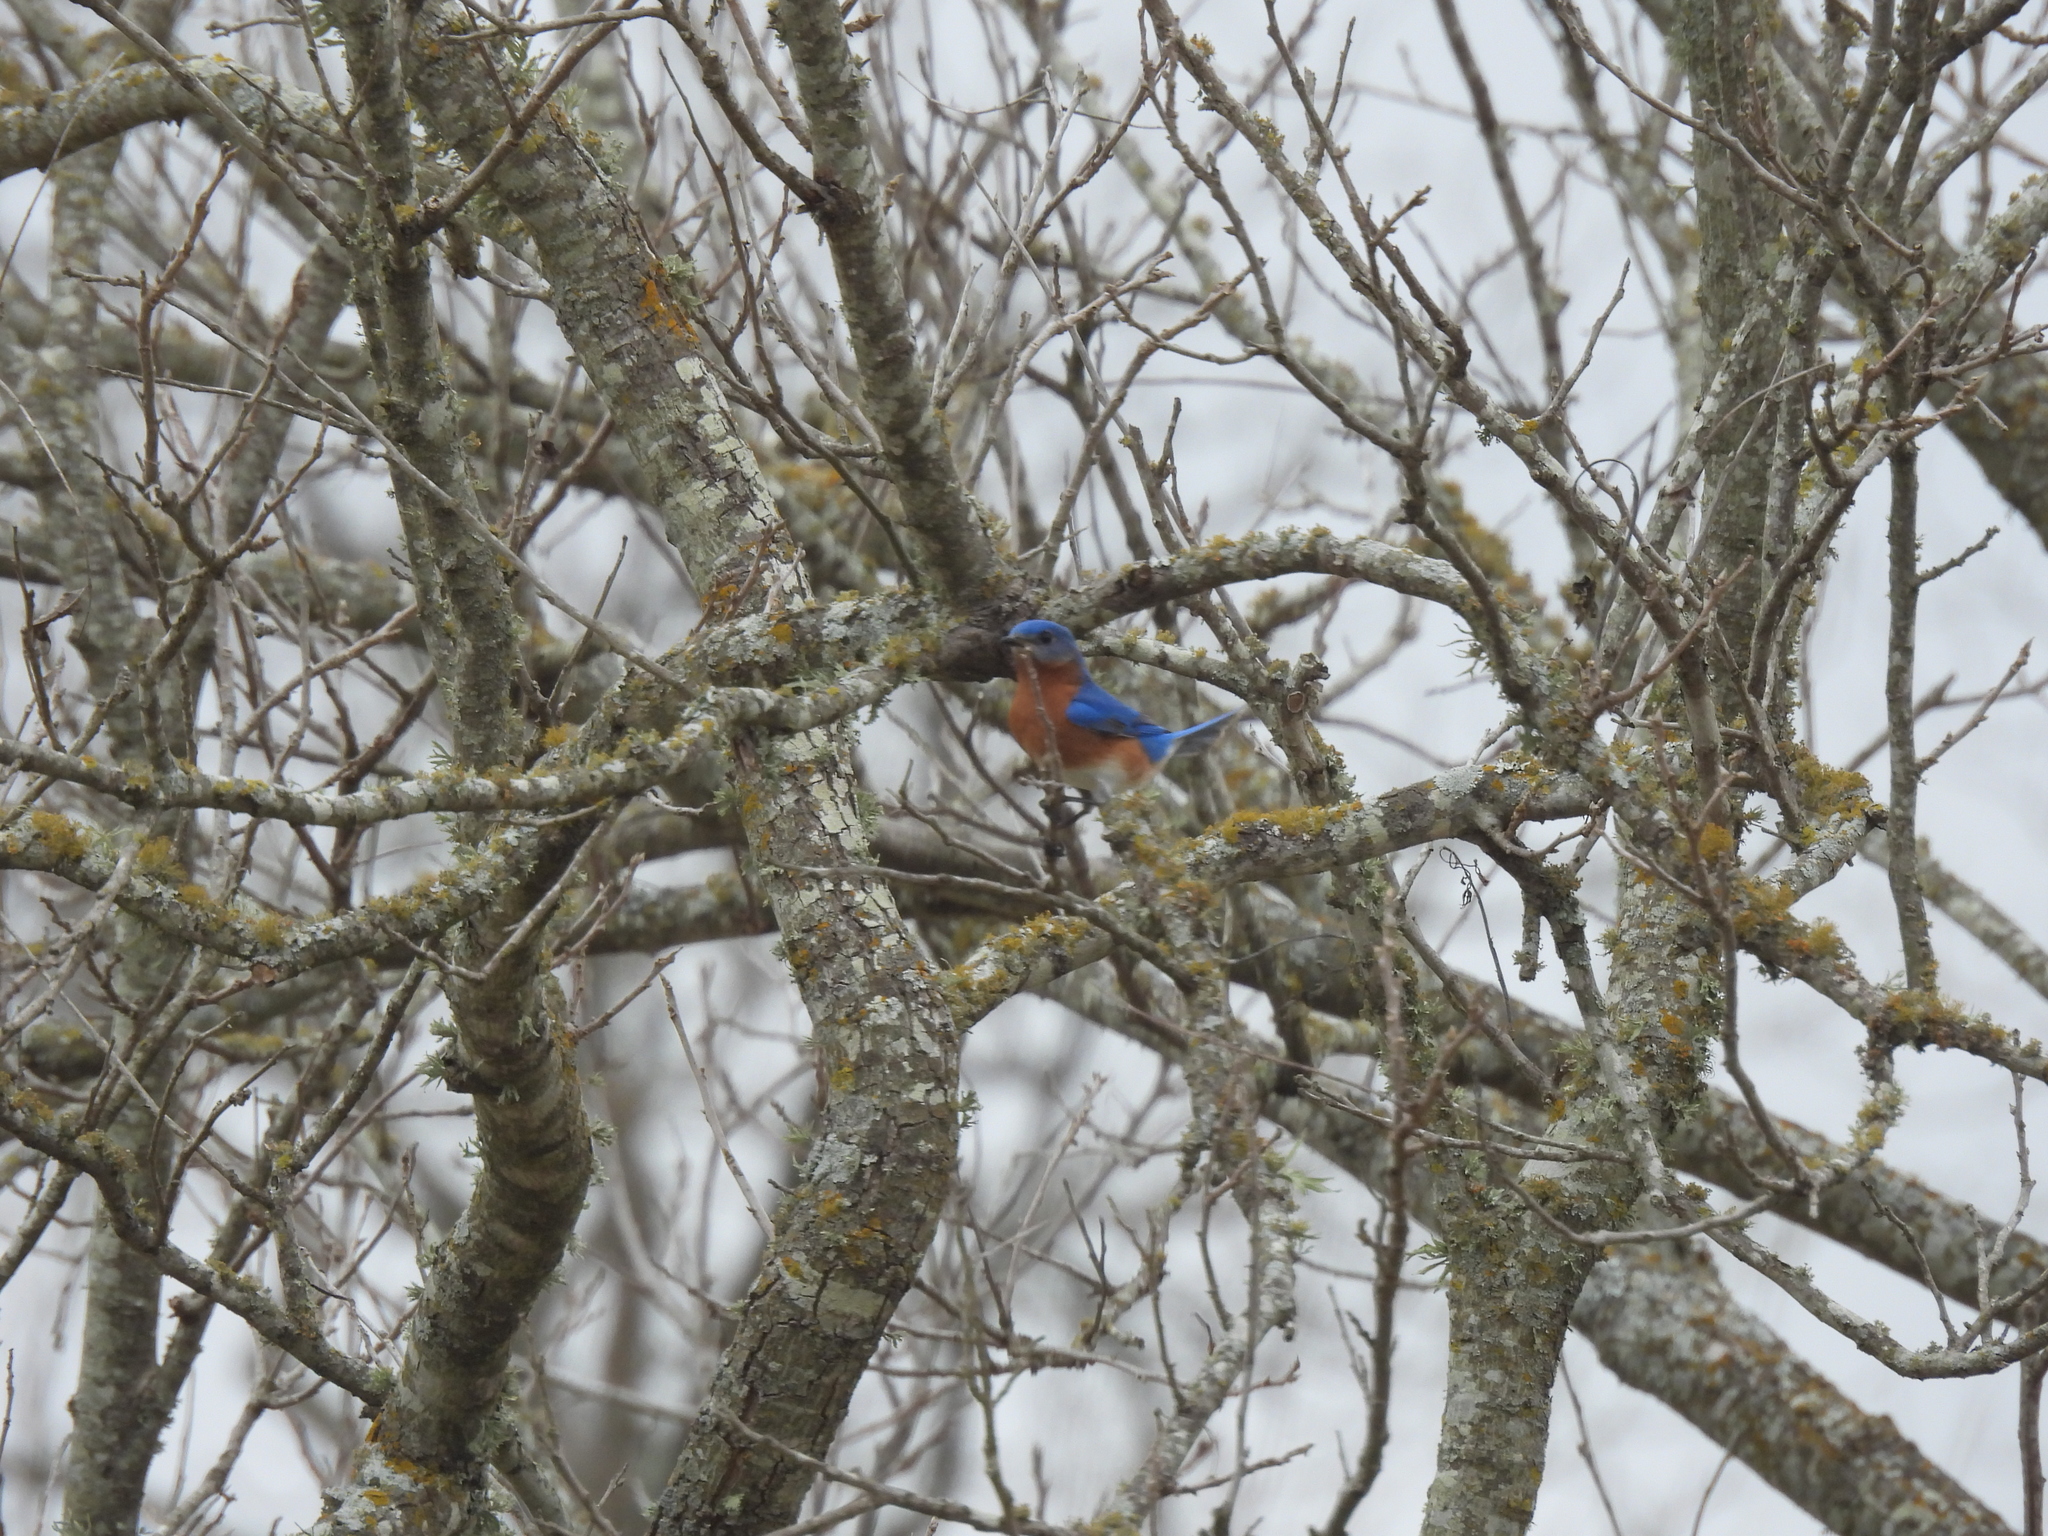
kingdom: Animalia
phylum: Chordata
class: Aves
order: Passeriformes
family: Turdidae
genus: Sialia
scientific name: Sialia sialis
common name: Eastern bluebird
